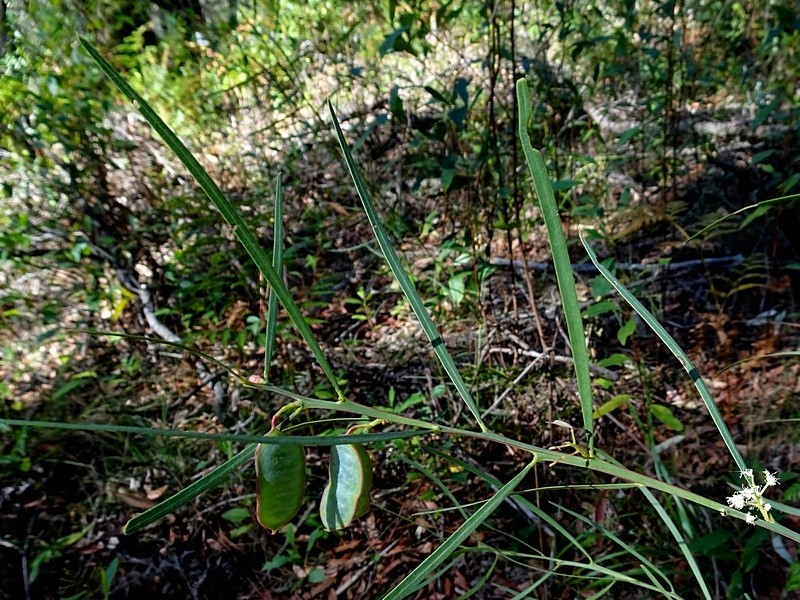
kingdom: Plantae
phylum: Tracheophyta
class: Magnoliopsida
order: Fabales
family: Fabaceae
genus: Acacia
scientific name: Acacia suaveolens
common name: Sweet acacia
